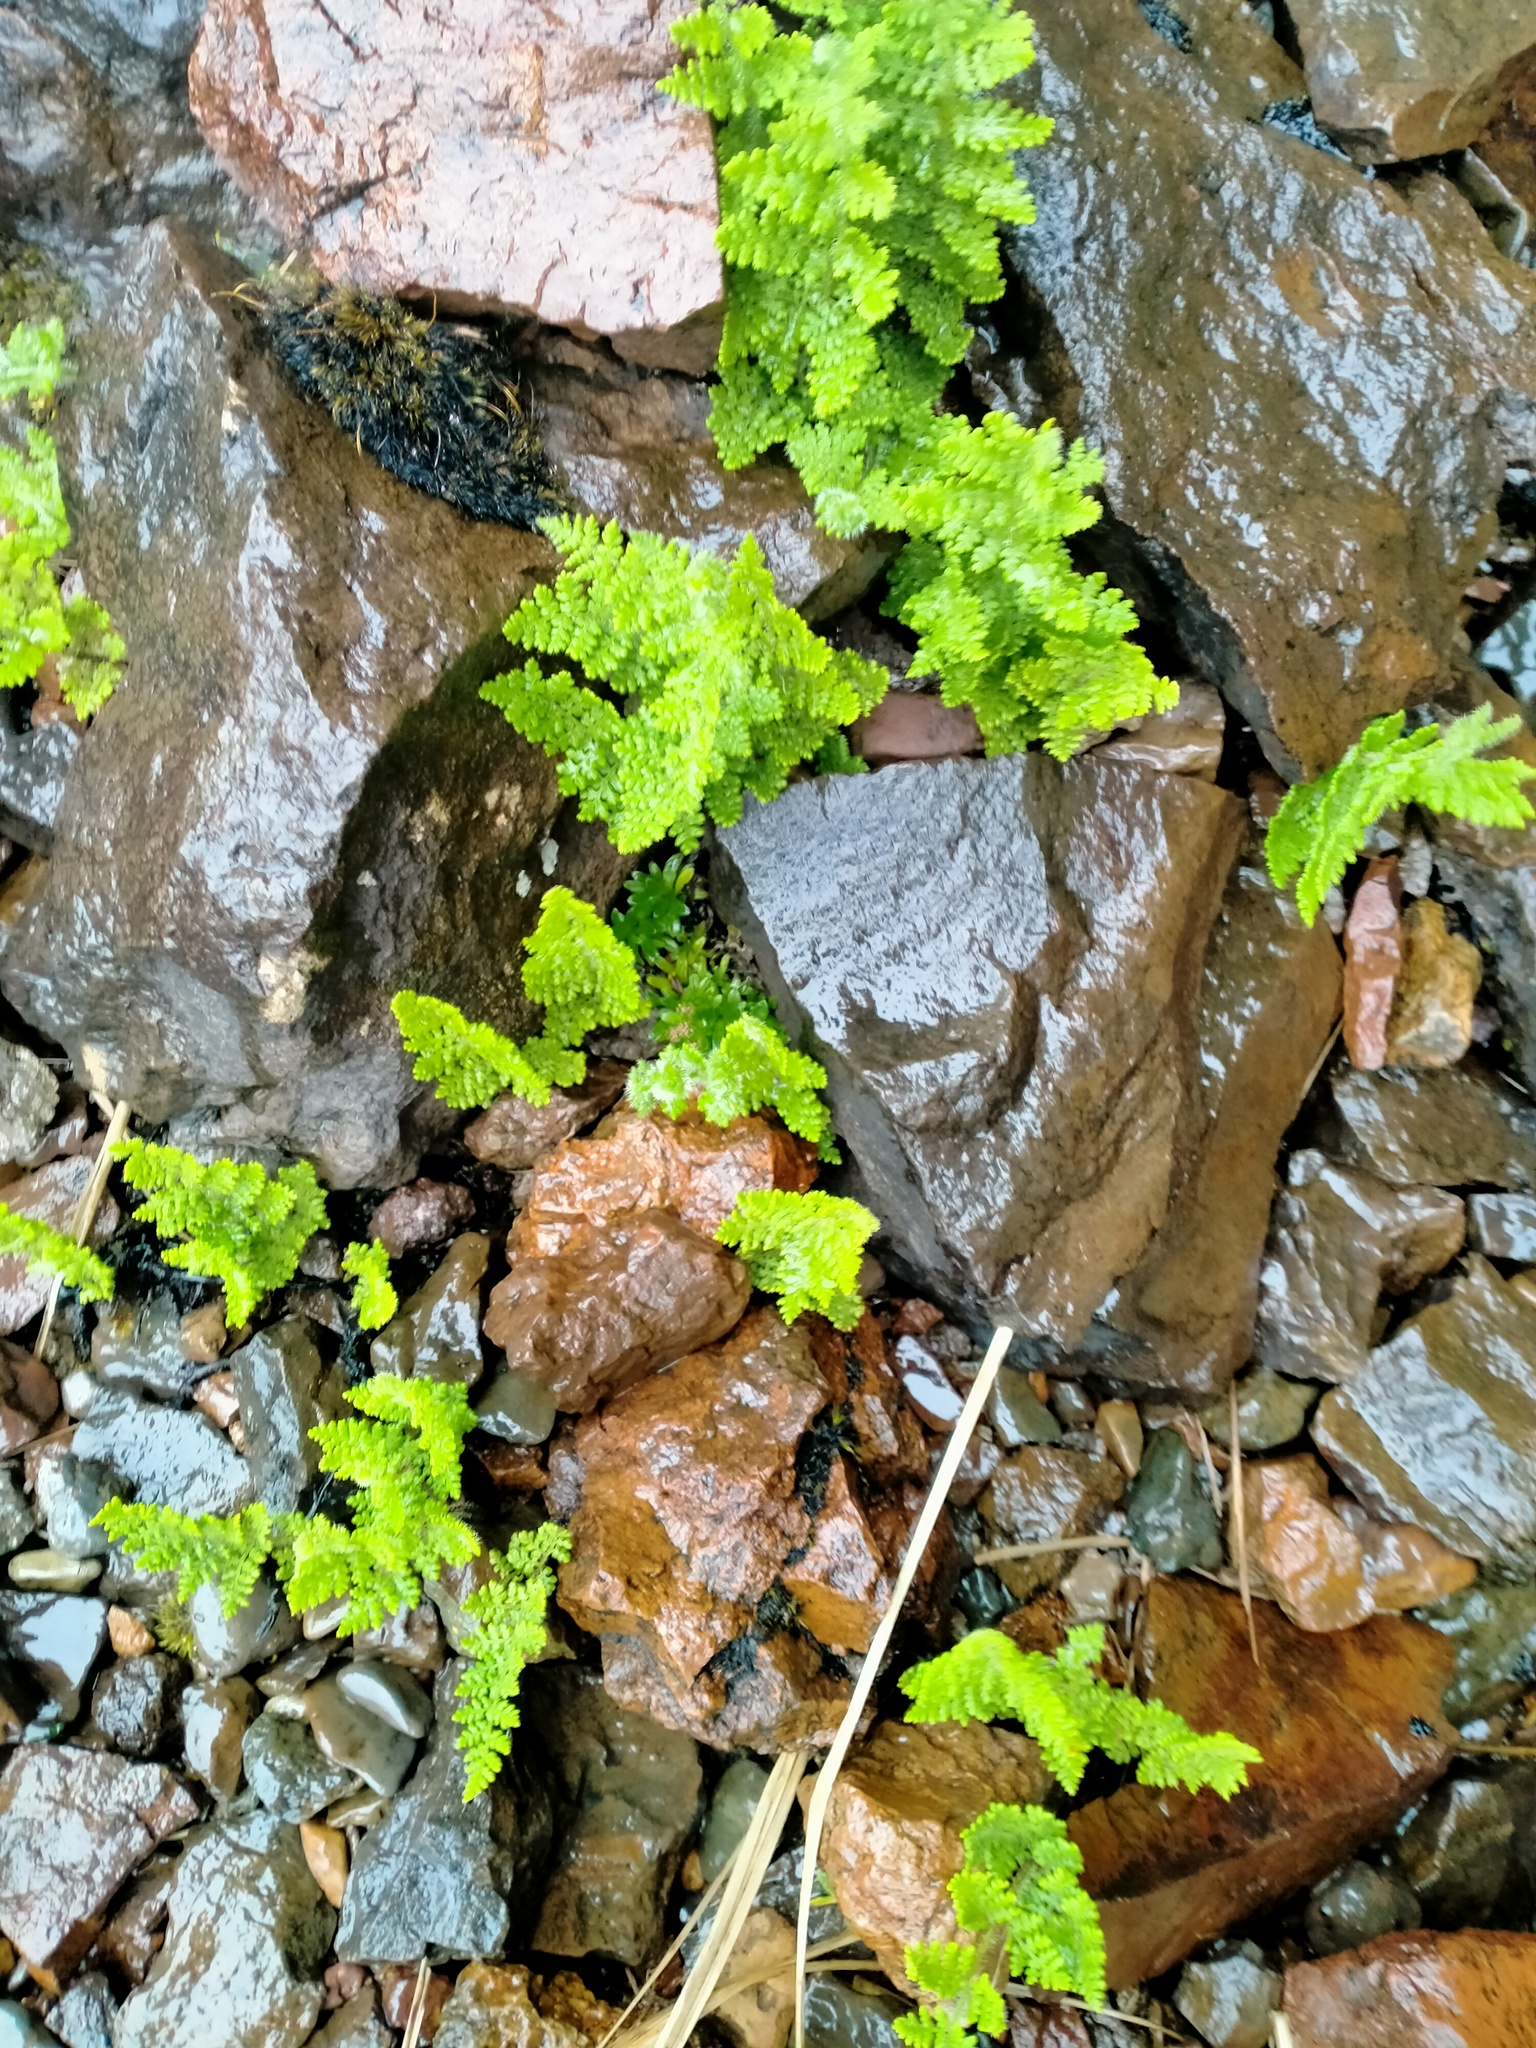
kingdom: Plantae
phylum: Tracheophyta
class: Polypodiopsida
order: Polypodiales
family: Dennstaedtiaceae
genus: Hypolepis
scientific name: Hypolepis millefolium
